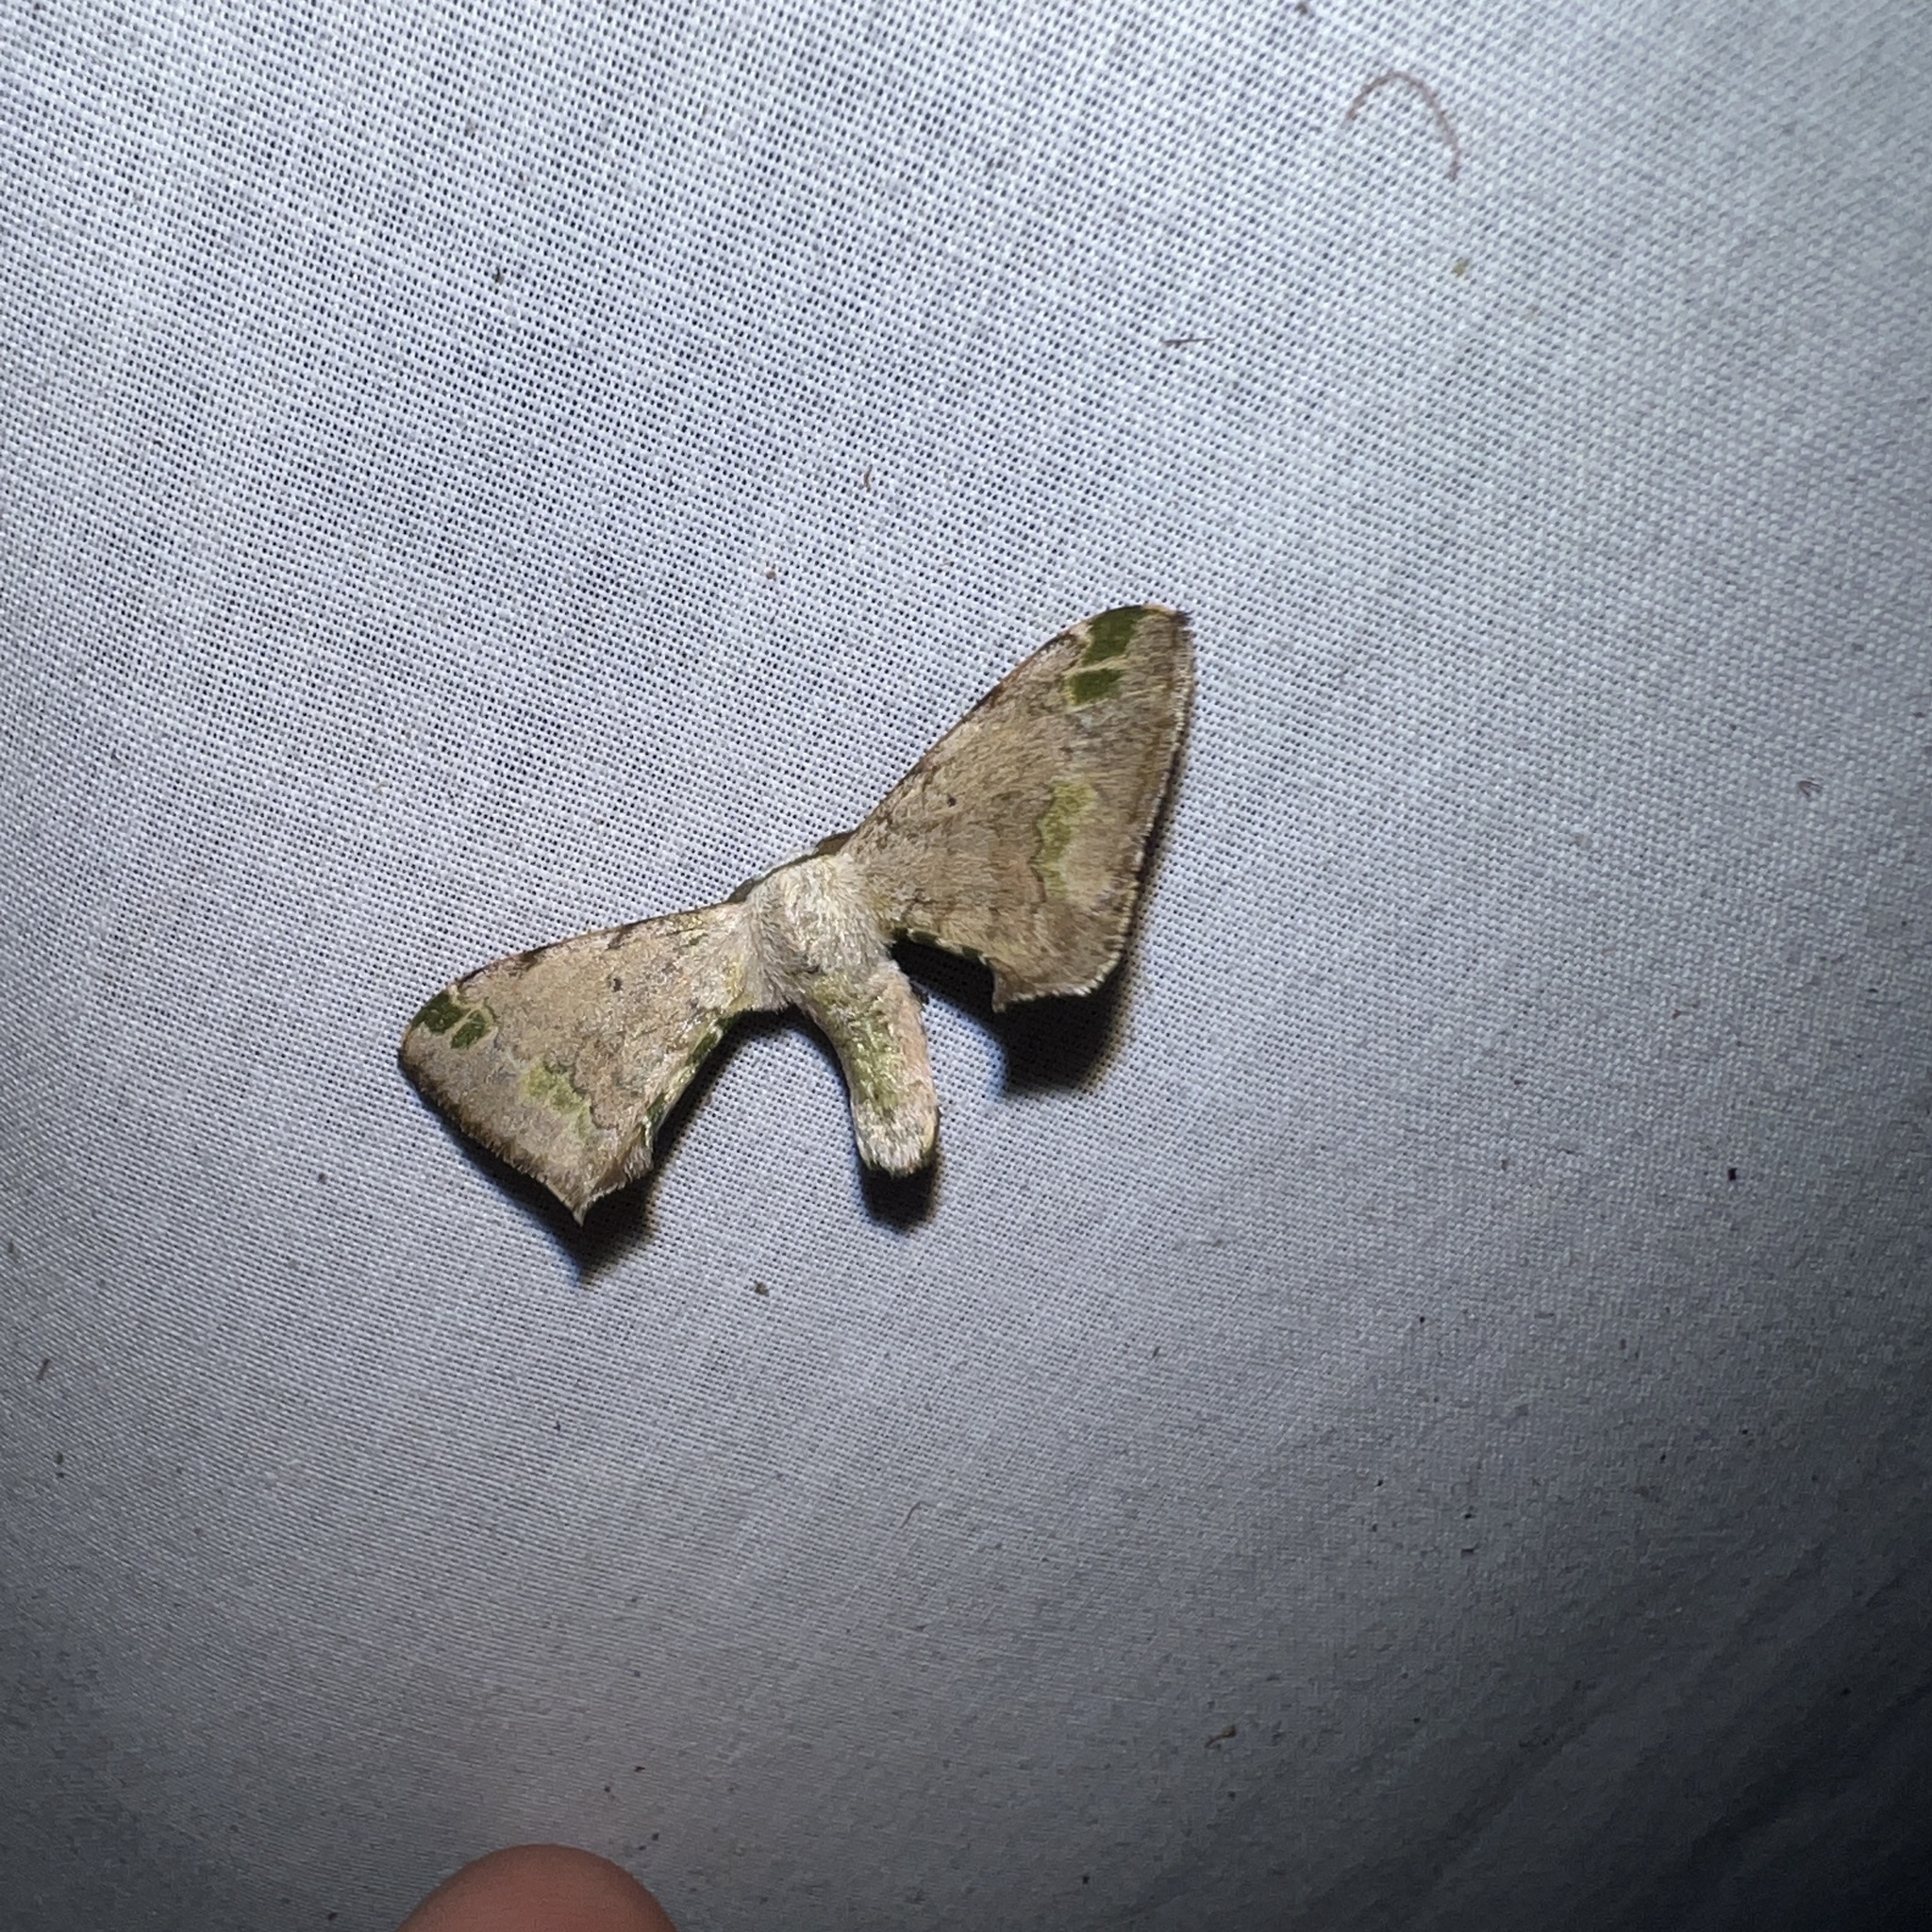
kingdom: Animalia
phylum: Arthropoda
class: Insecta
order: Lepidoptera
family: Bombycidae
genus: Anticla
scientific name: Anticla antica
